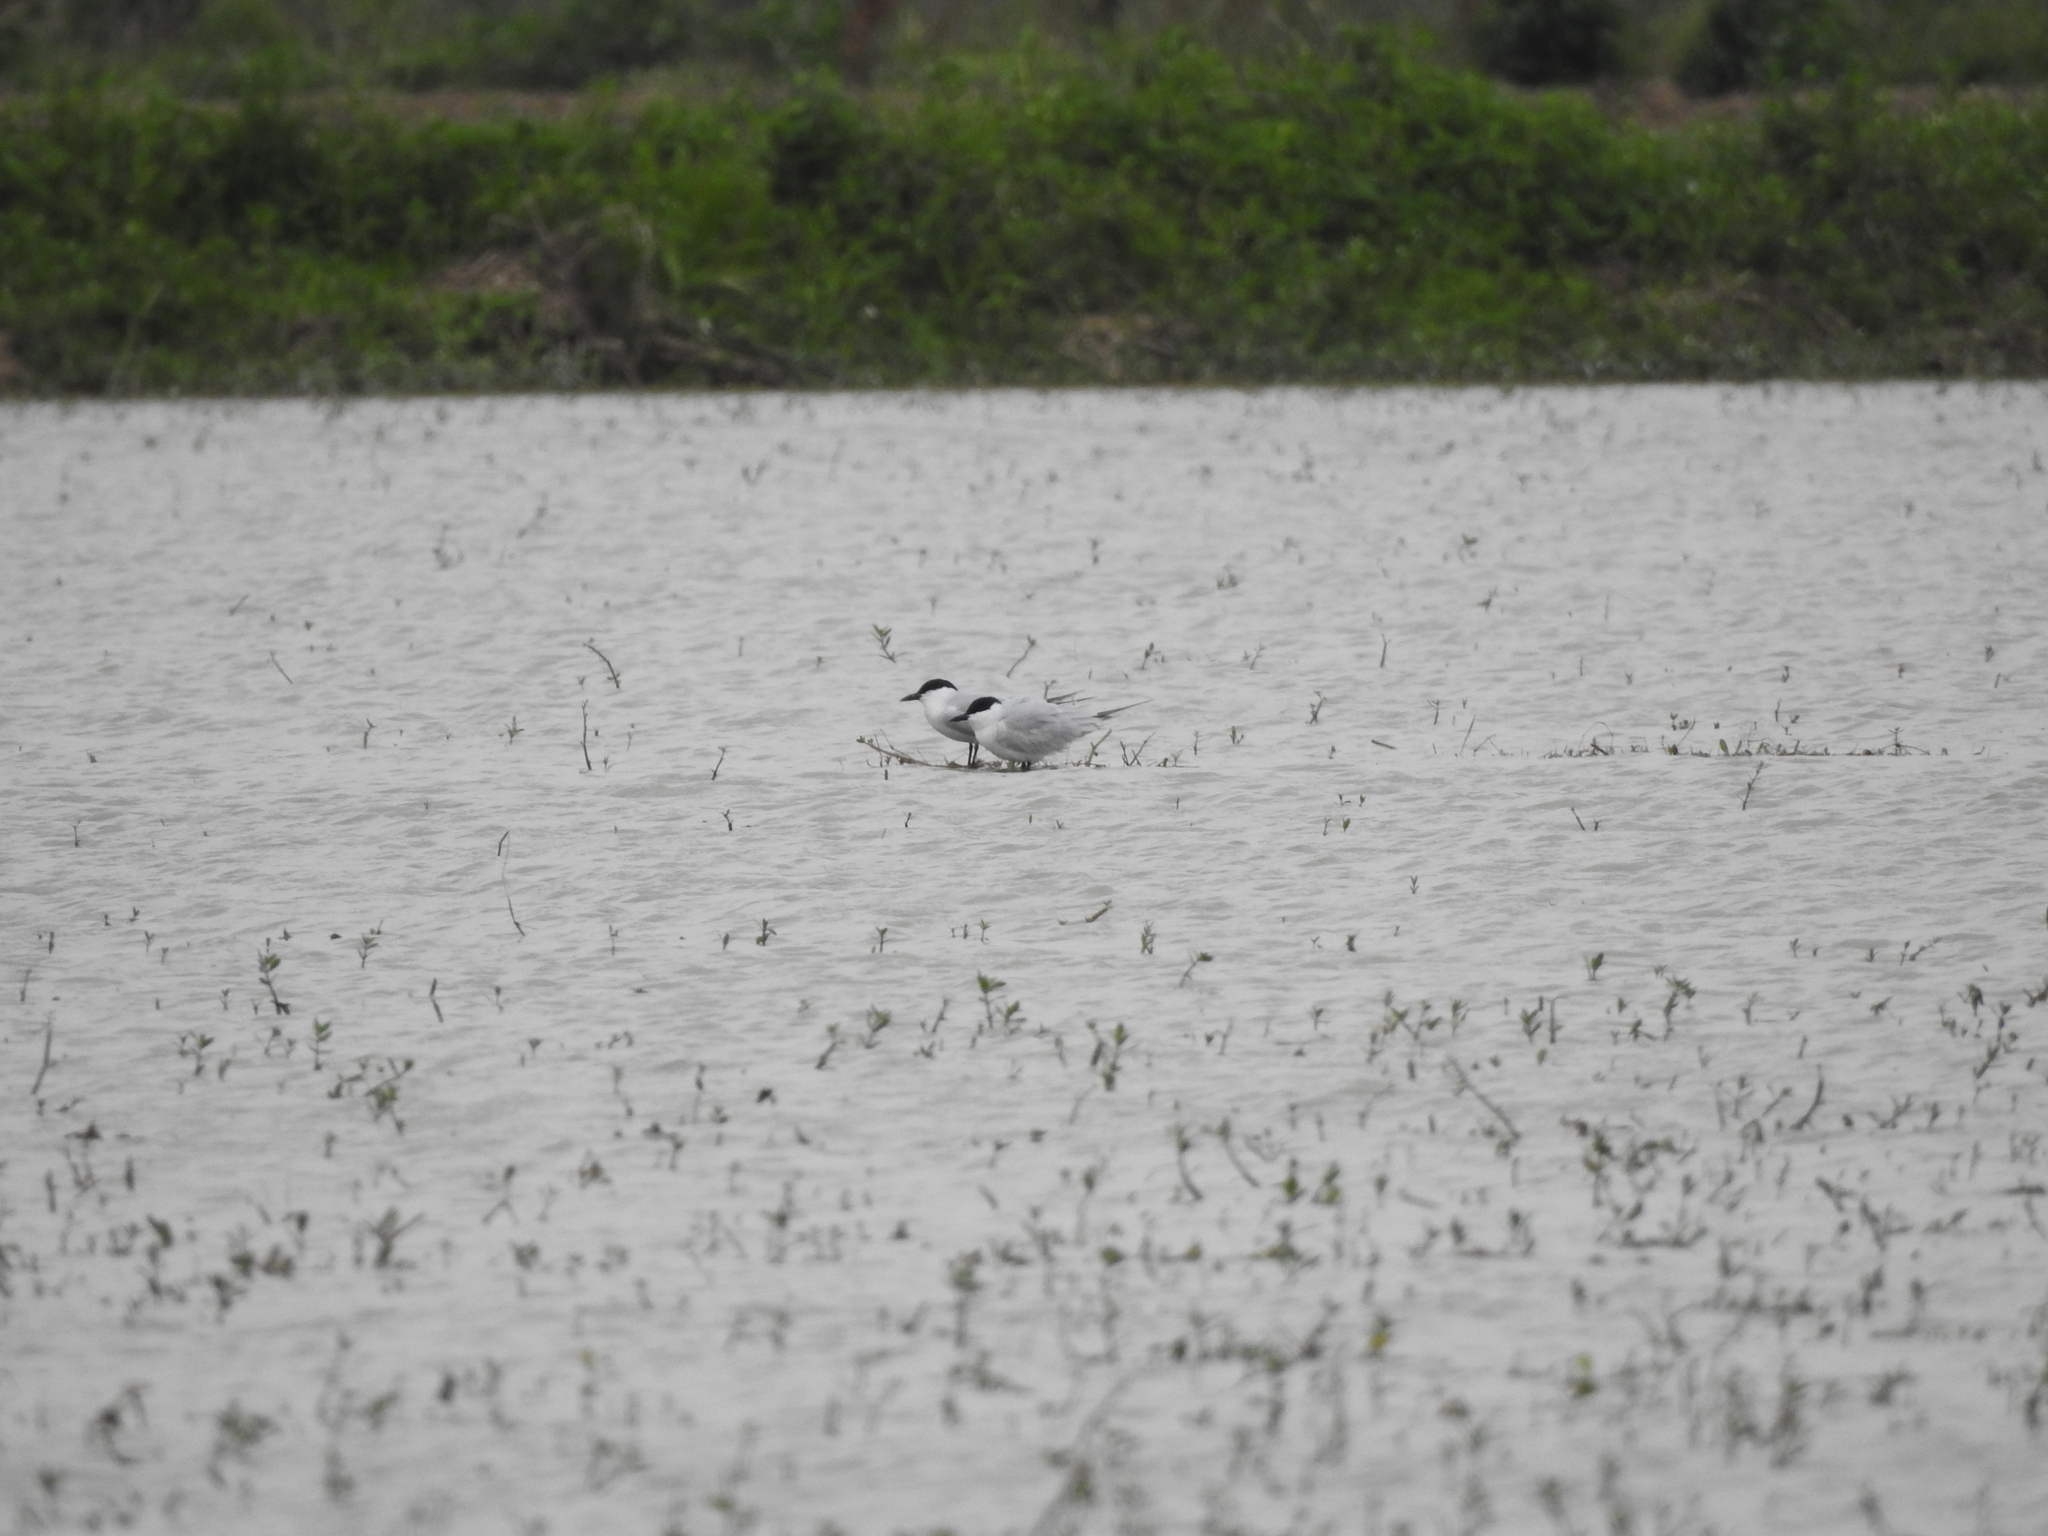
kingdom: Animalia
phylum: Chordata
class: Aves
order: Charadriiformes
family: Laridae
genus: Gelochelidon
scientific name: Gelochelidon nilotica
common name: Gull-billed tern
